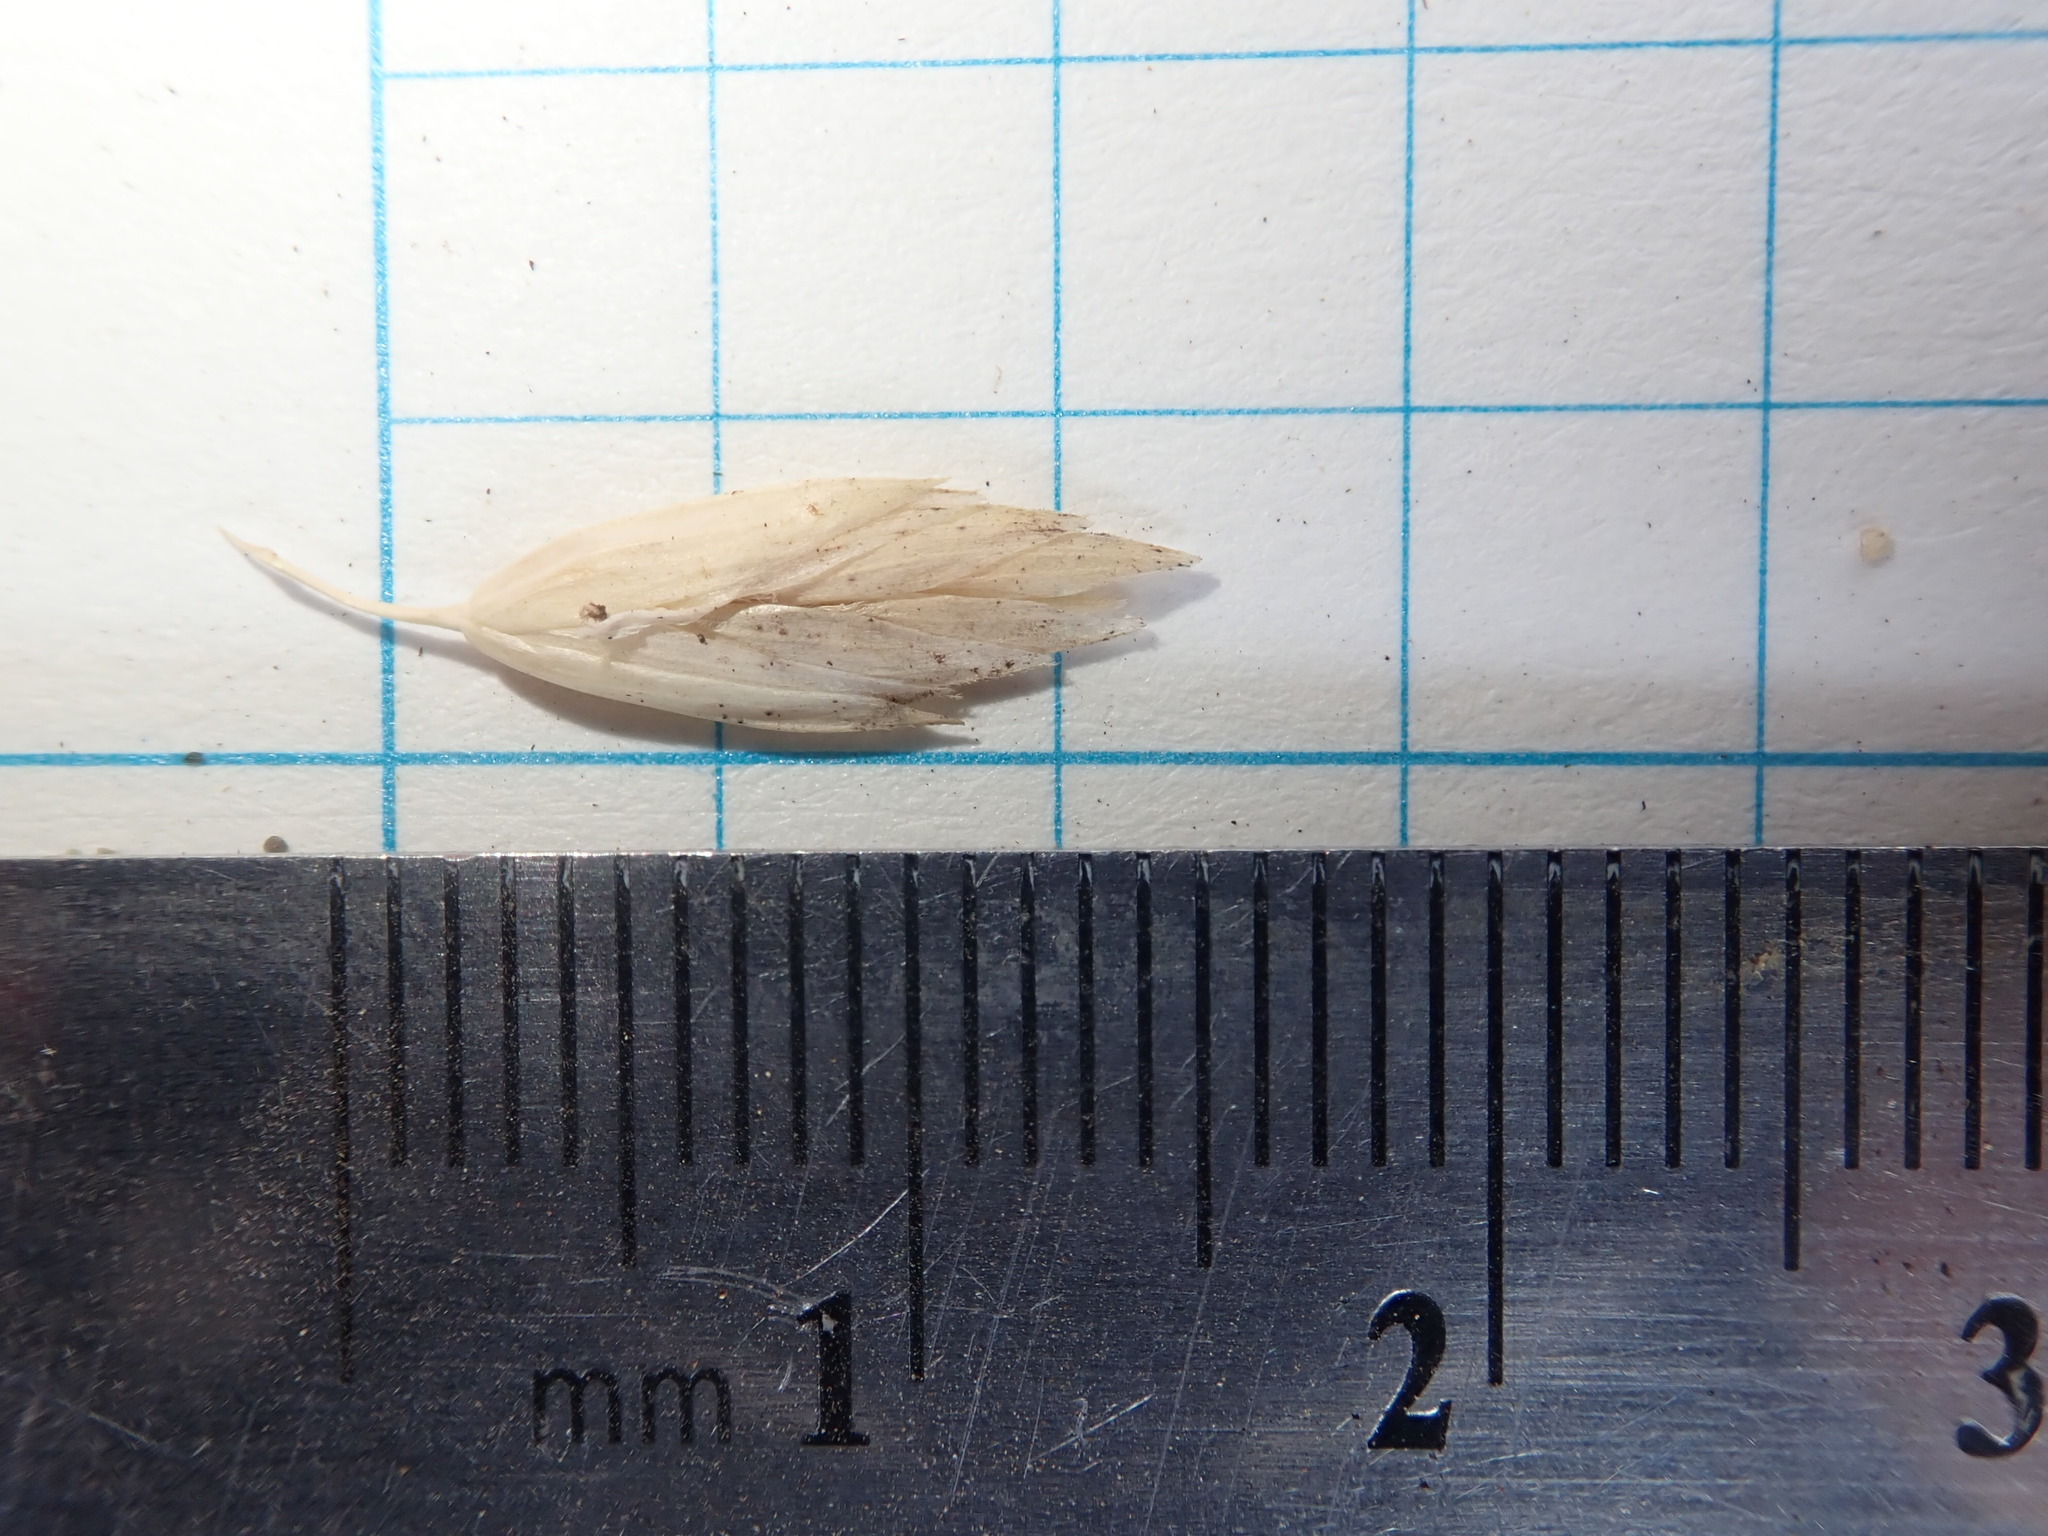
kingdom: Plantae
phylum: Tracheophyta
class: Liliopsida
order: Poales
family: Poaceae
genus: Poa
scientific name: Poa macrantha
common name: Dune bluegrass
